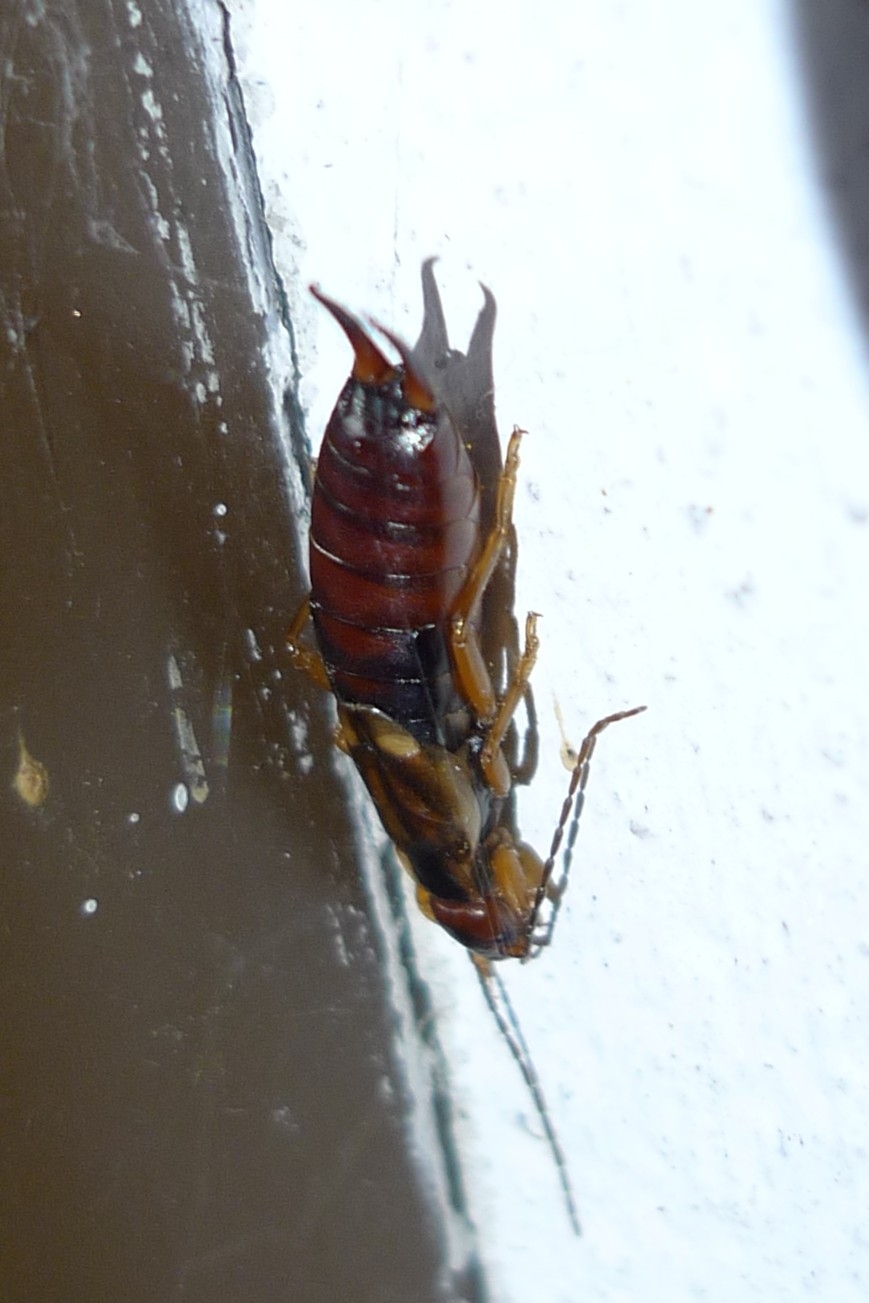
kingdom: Animalia
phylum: Arthropoda
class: Insecta
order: Dermaptera
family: Forficulidae
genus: Forficula
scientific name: Forficula
